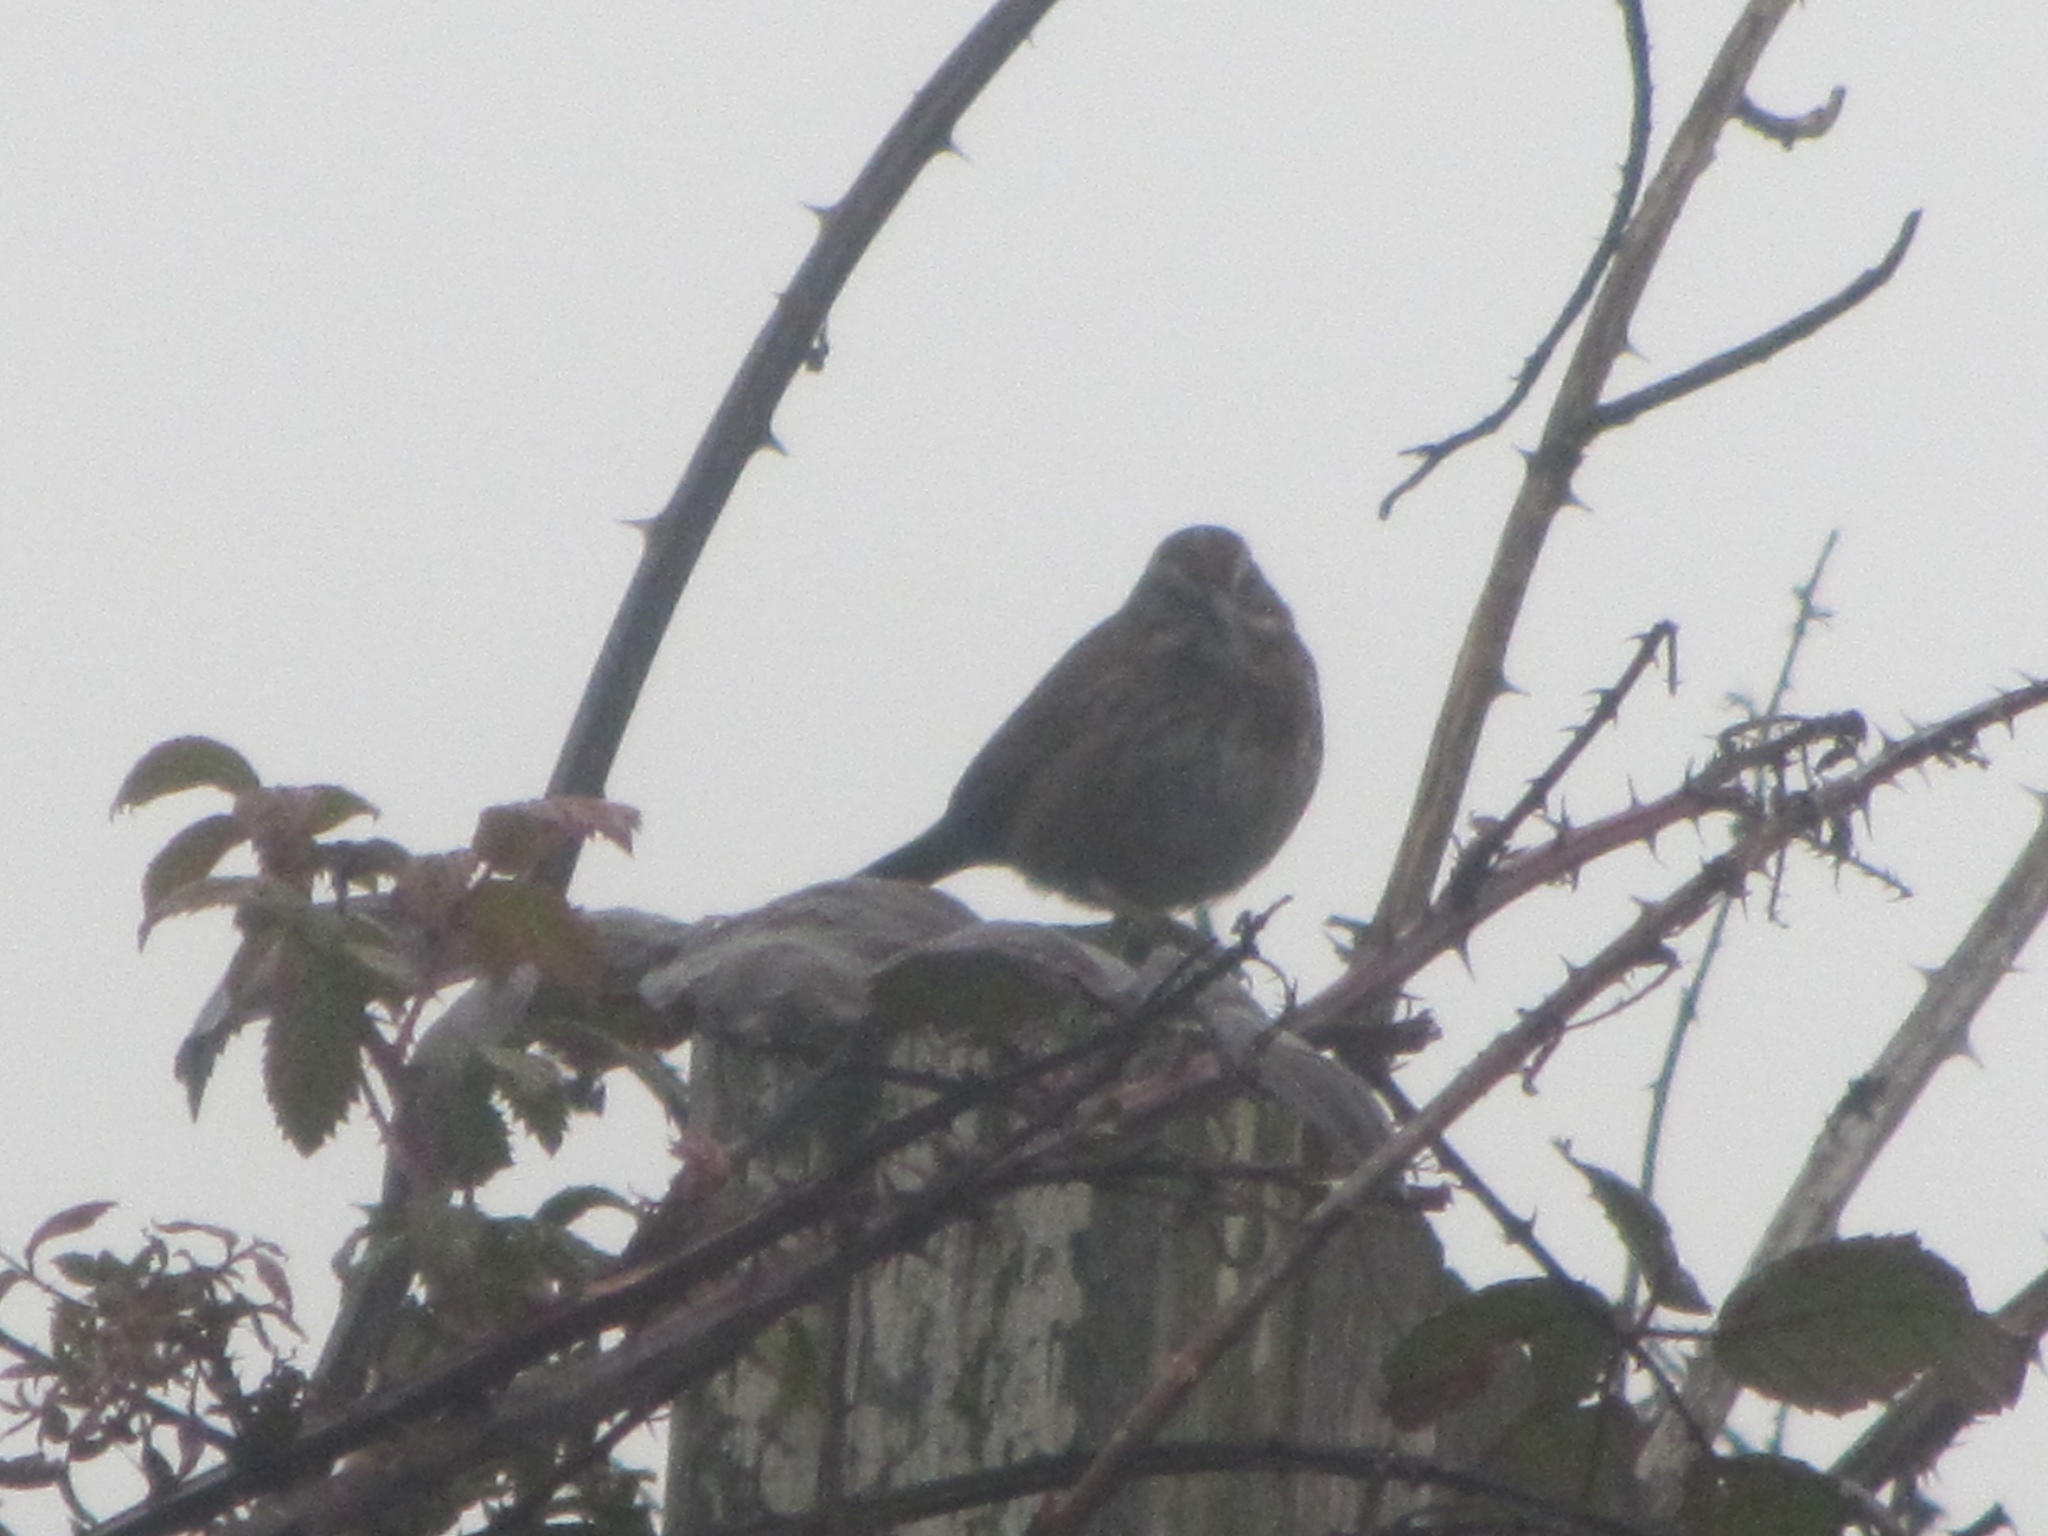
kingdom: Animalia
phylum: Chordata
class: Aves
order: Passeriformes
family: Passerellidae
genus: Melospiza
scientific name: Melospiza melodia
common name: Song sparrow
